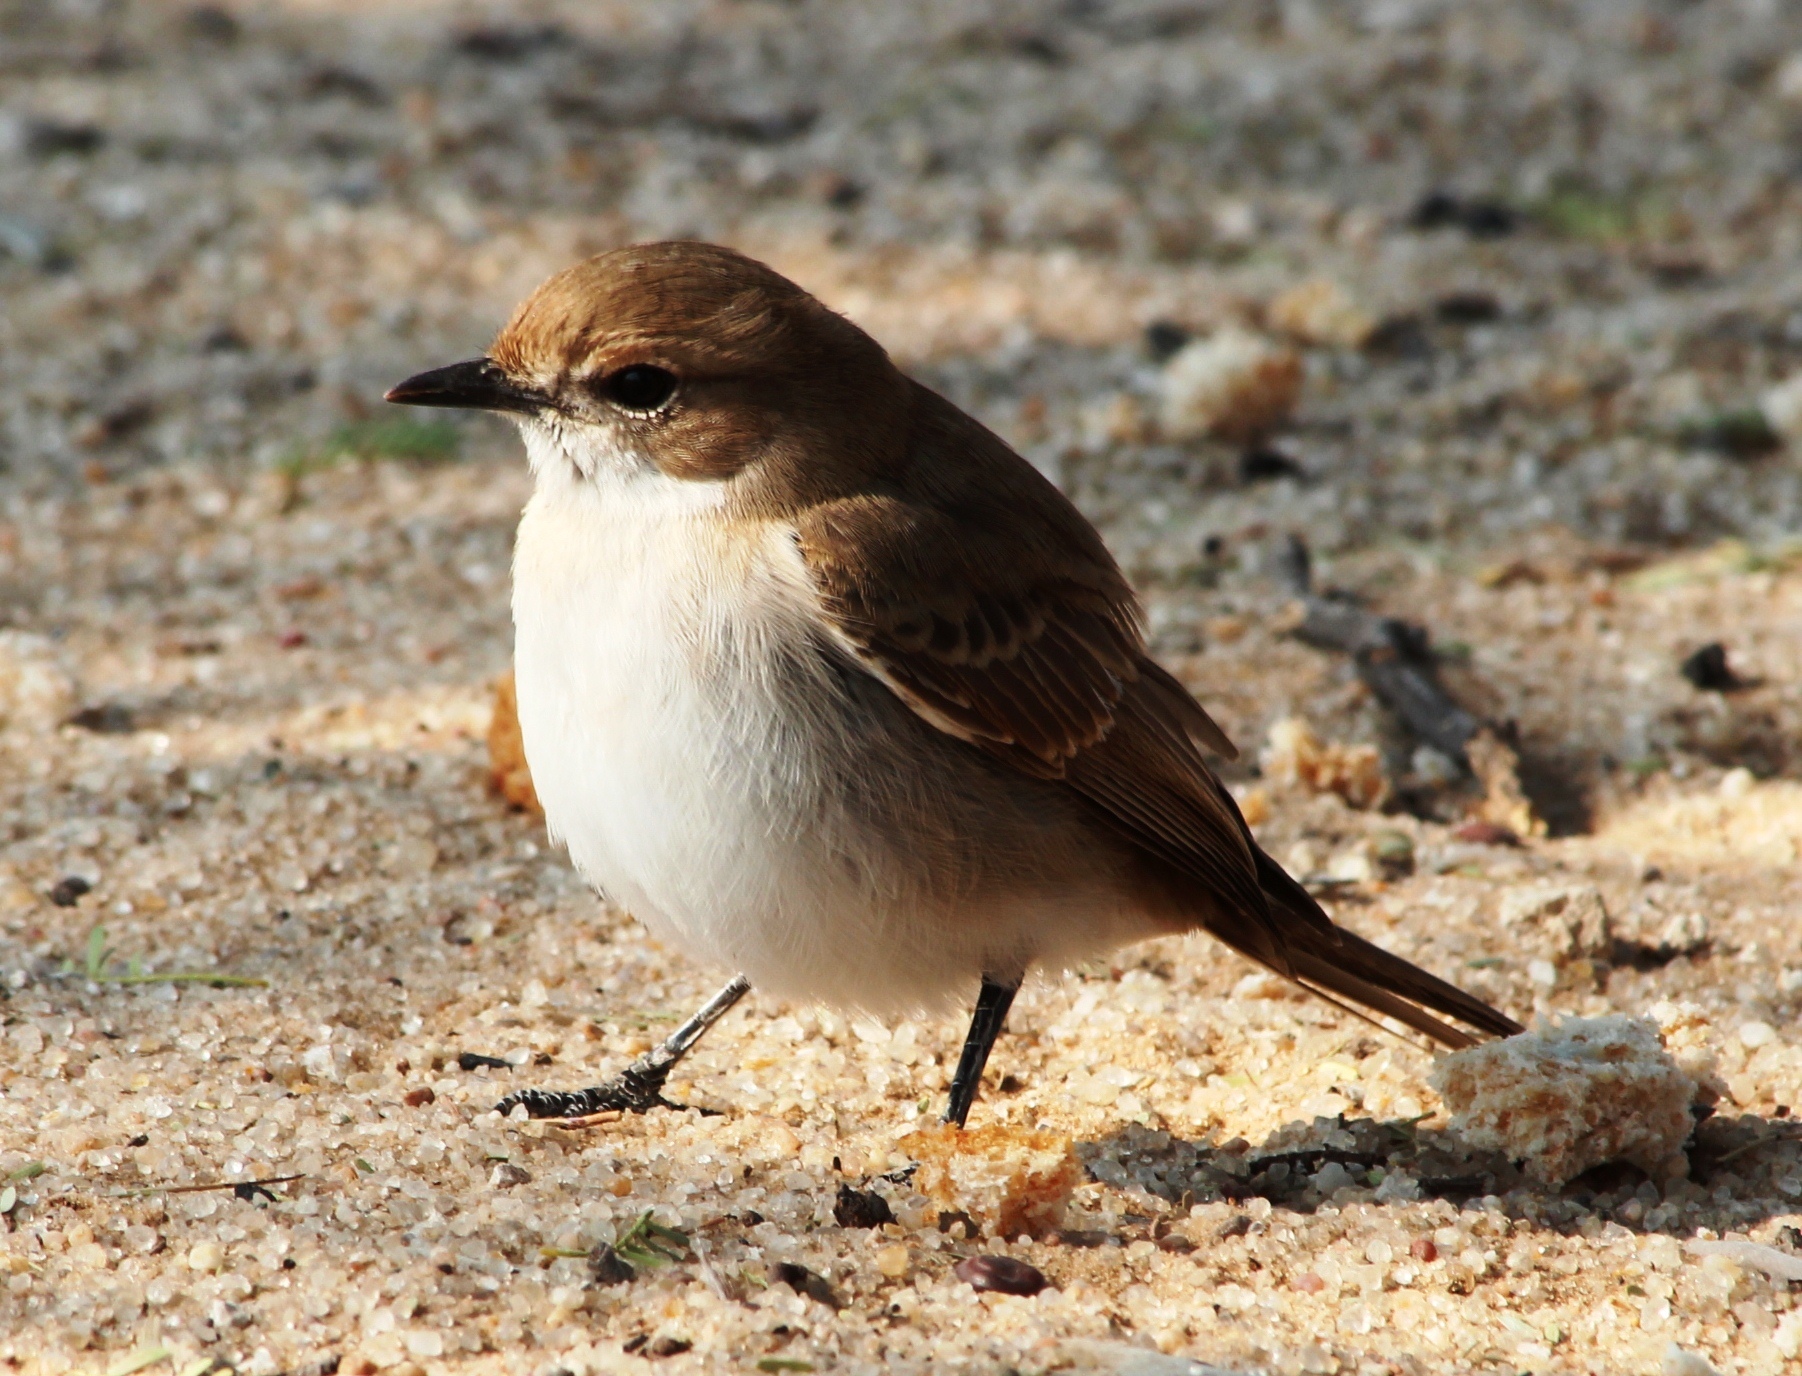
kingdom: Animalia
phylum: Chordata
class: Aves
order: Passeriformes
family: Muscicapidae
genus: Bradornis
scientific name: Bradornis mariquensis
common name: Marico flycatcher
